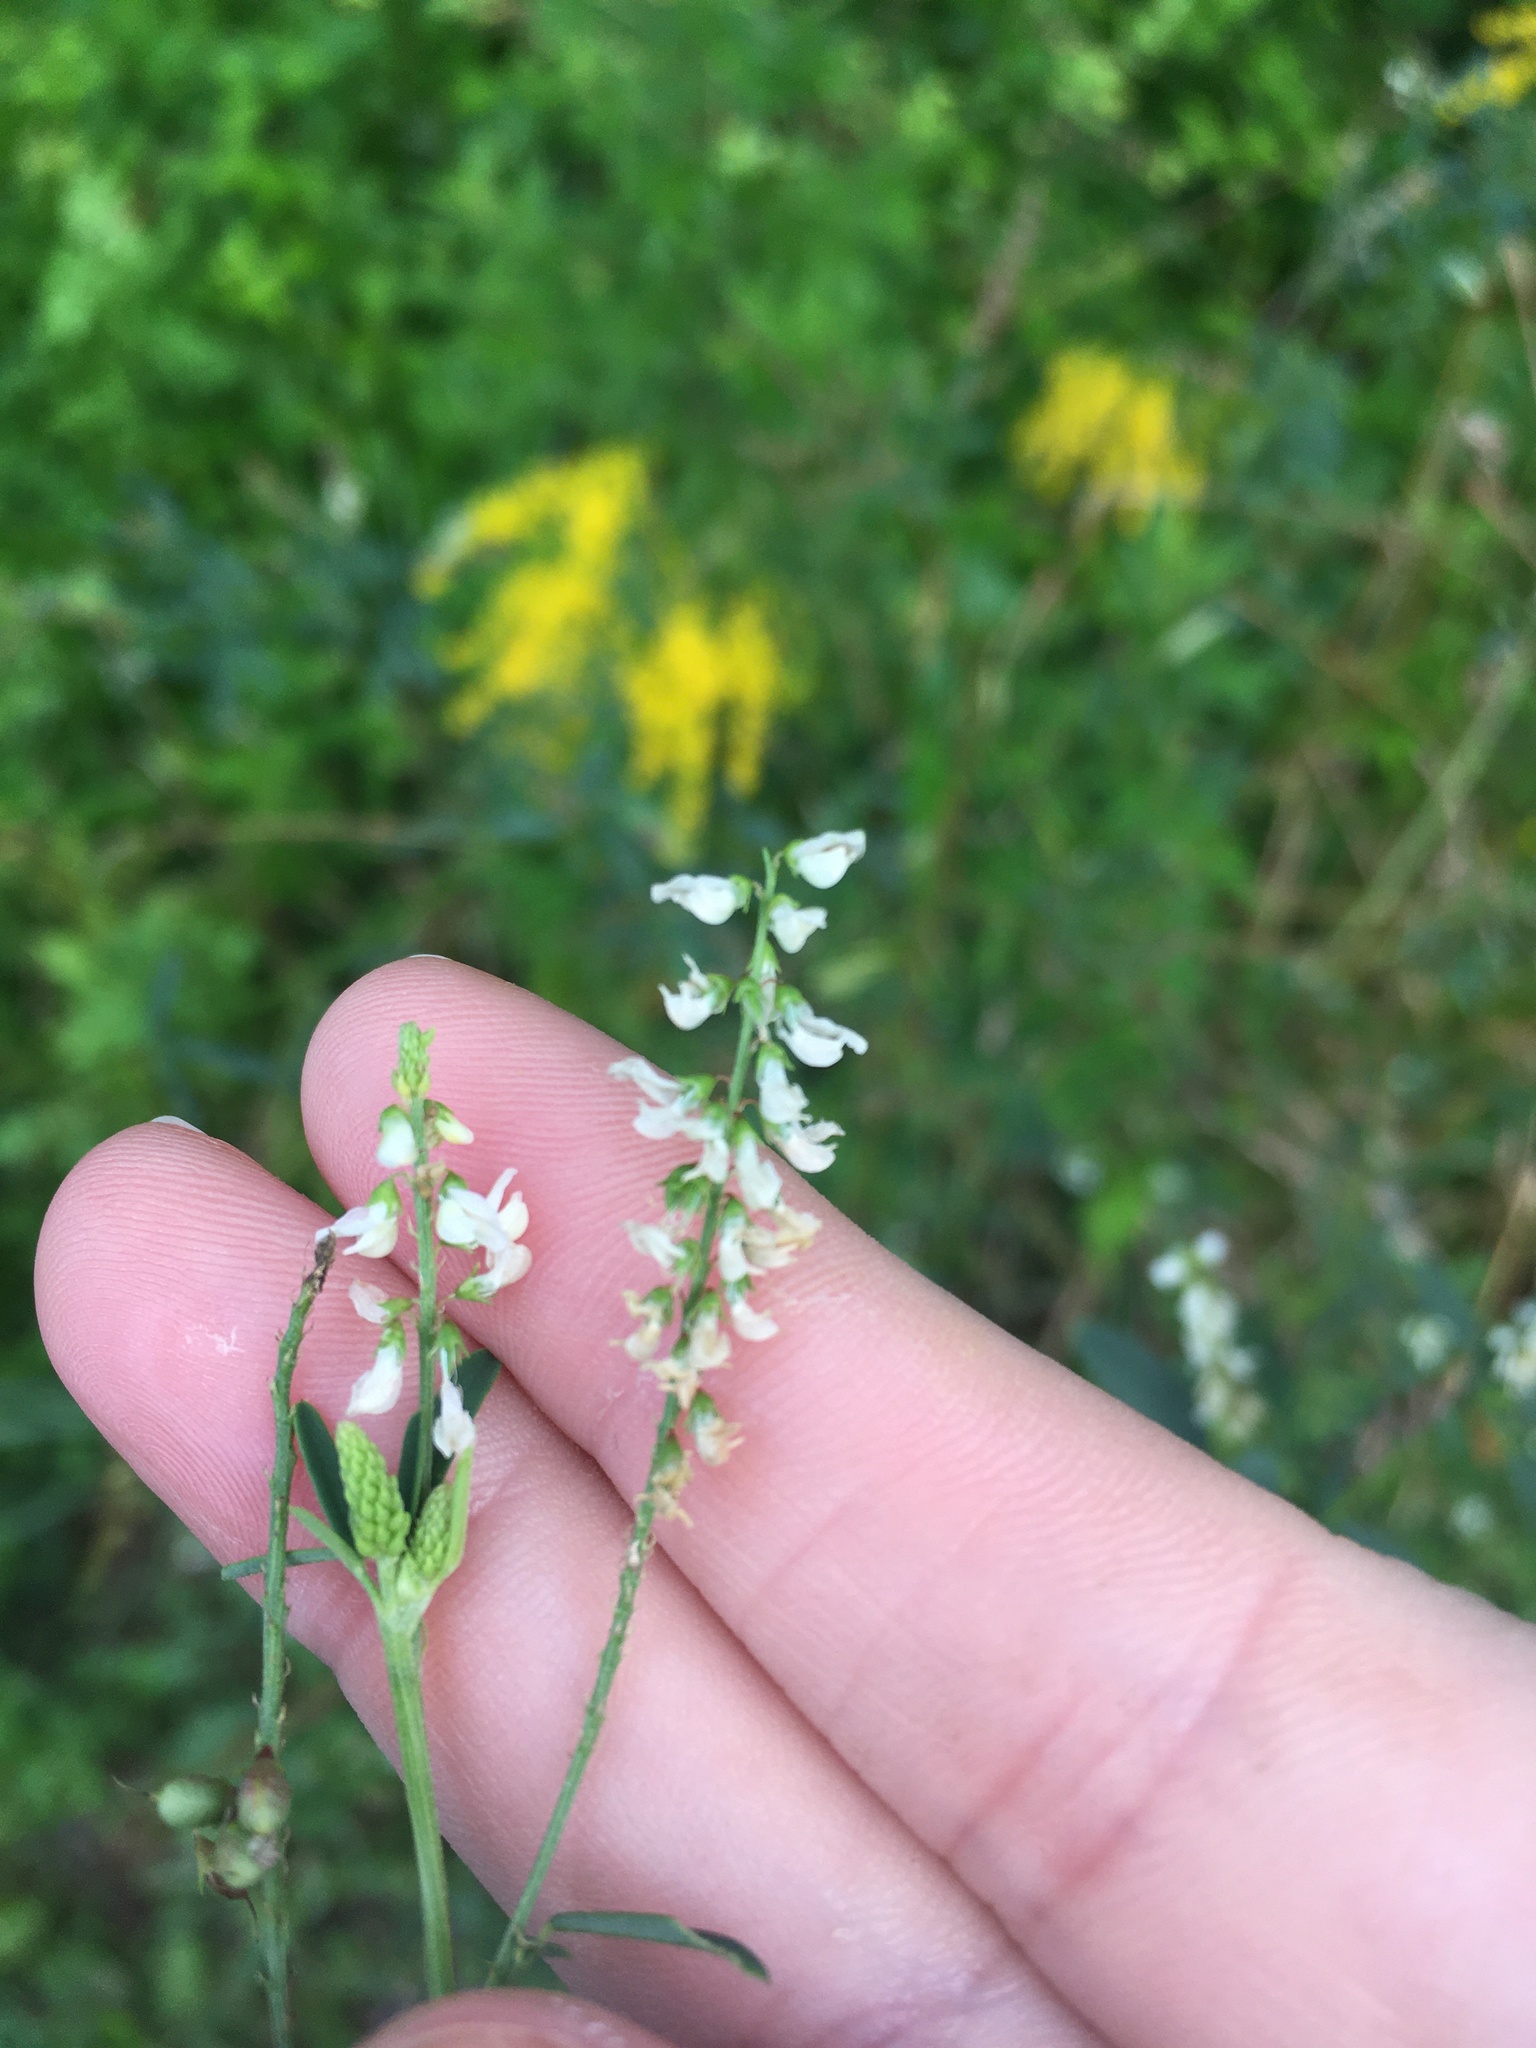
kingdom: Plantae
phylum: Tracheophyta
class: Magnoliopsida
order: Fabales
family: Fabaceae
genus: Melilotus
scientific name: Melilotus albus
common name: White melilot
